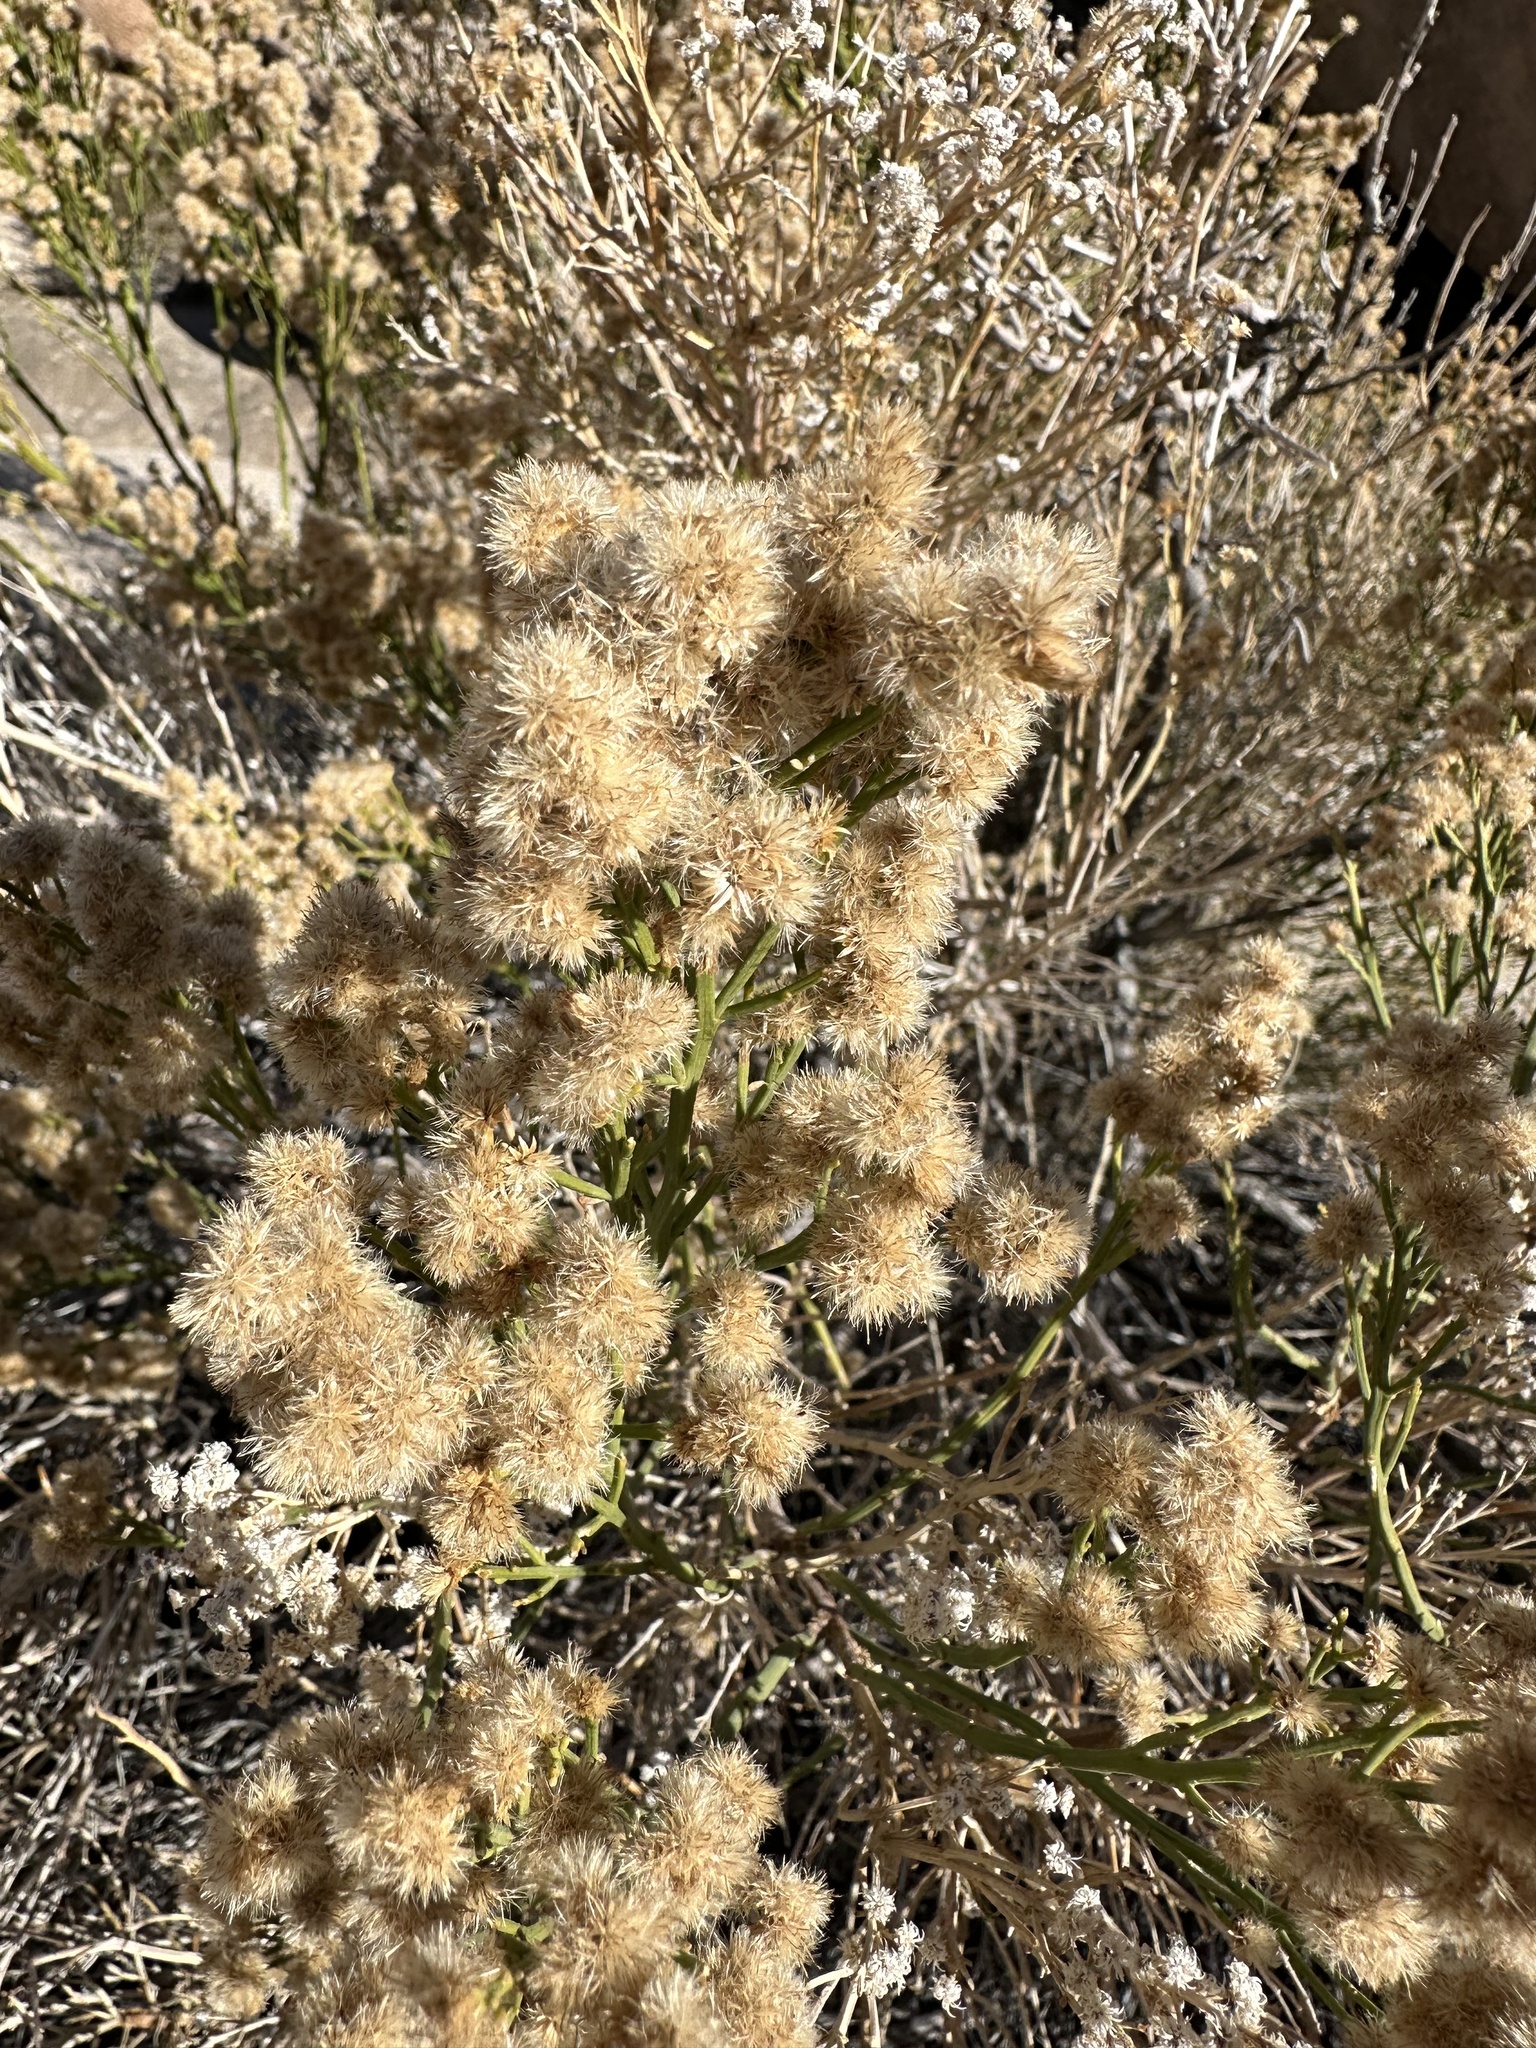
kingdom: Plantae
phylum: Tracheophyta
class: Magnoliopsida
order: Asterales
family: Asteraceae
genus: Baccharis
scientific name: Baccharis sergiloides
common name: Desert baccharis
